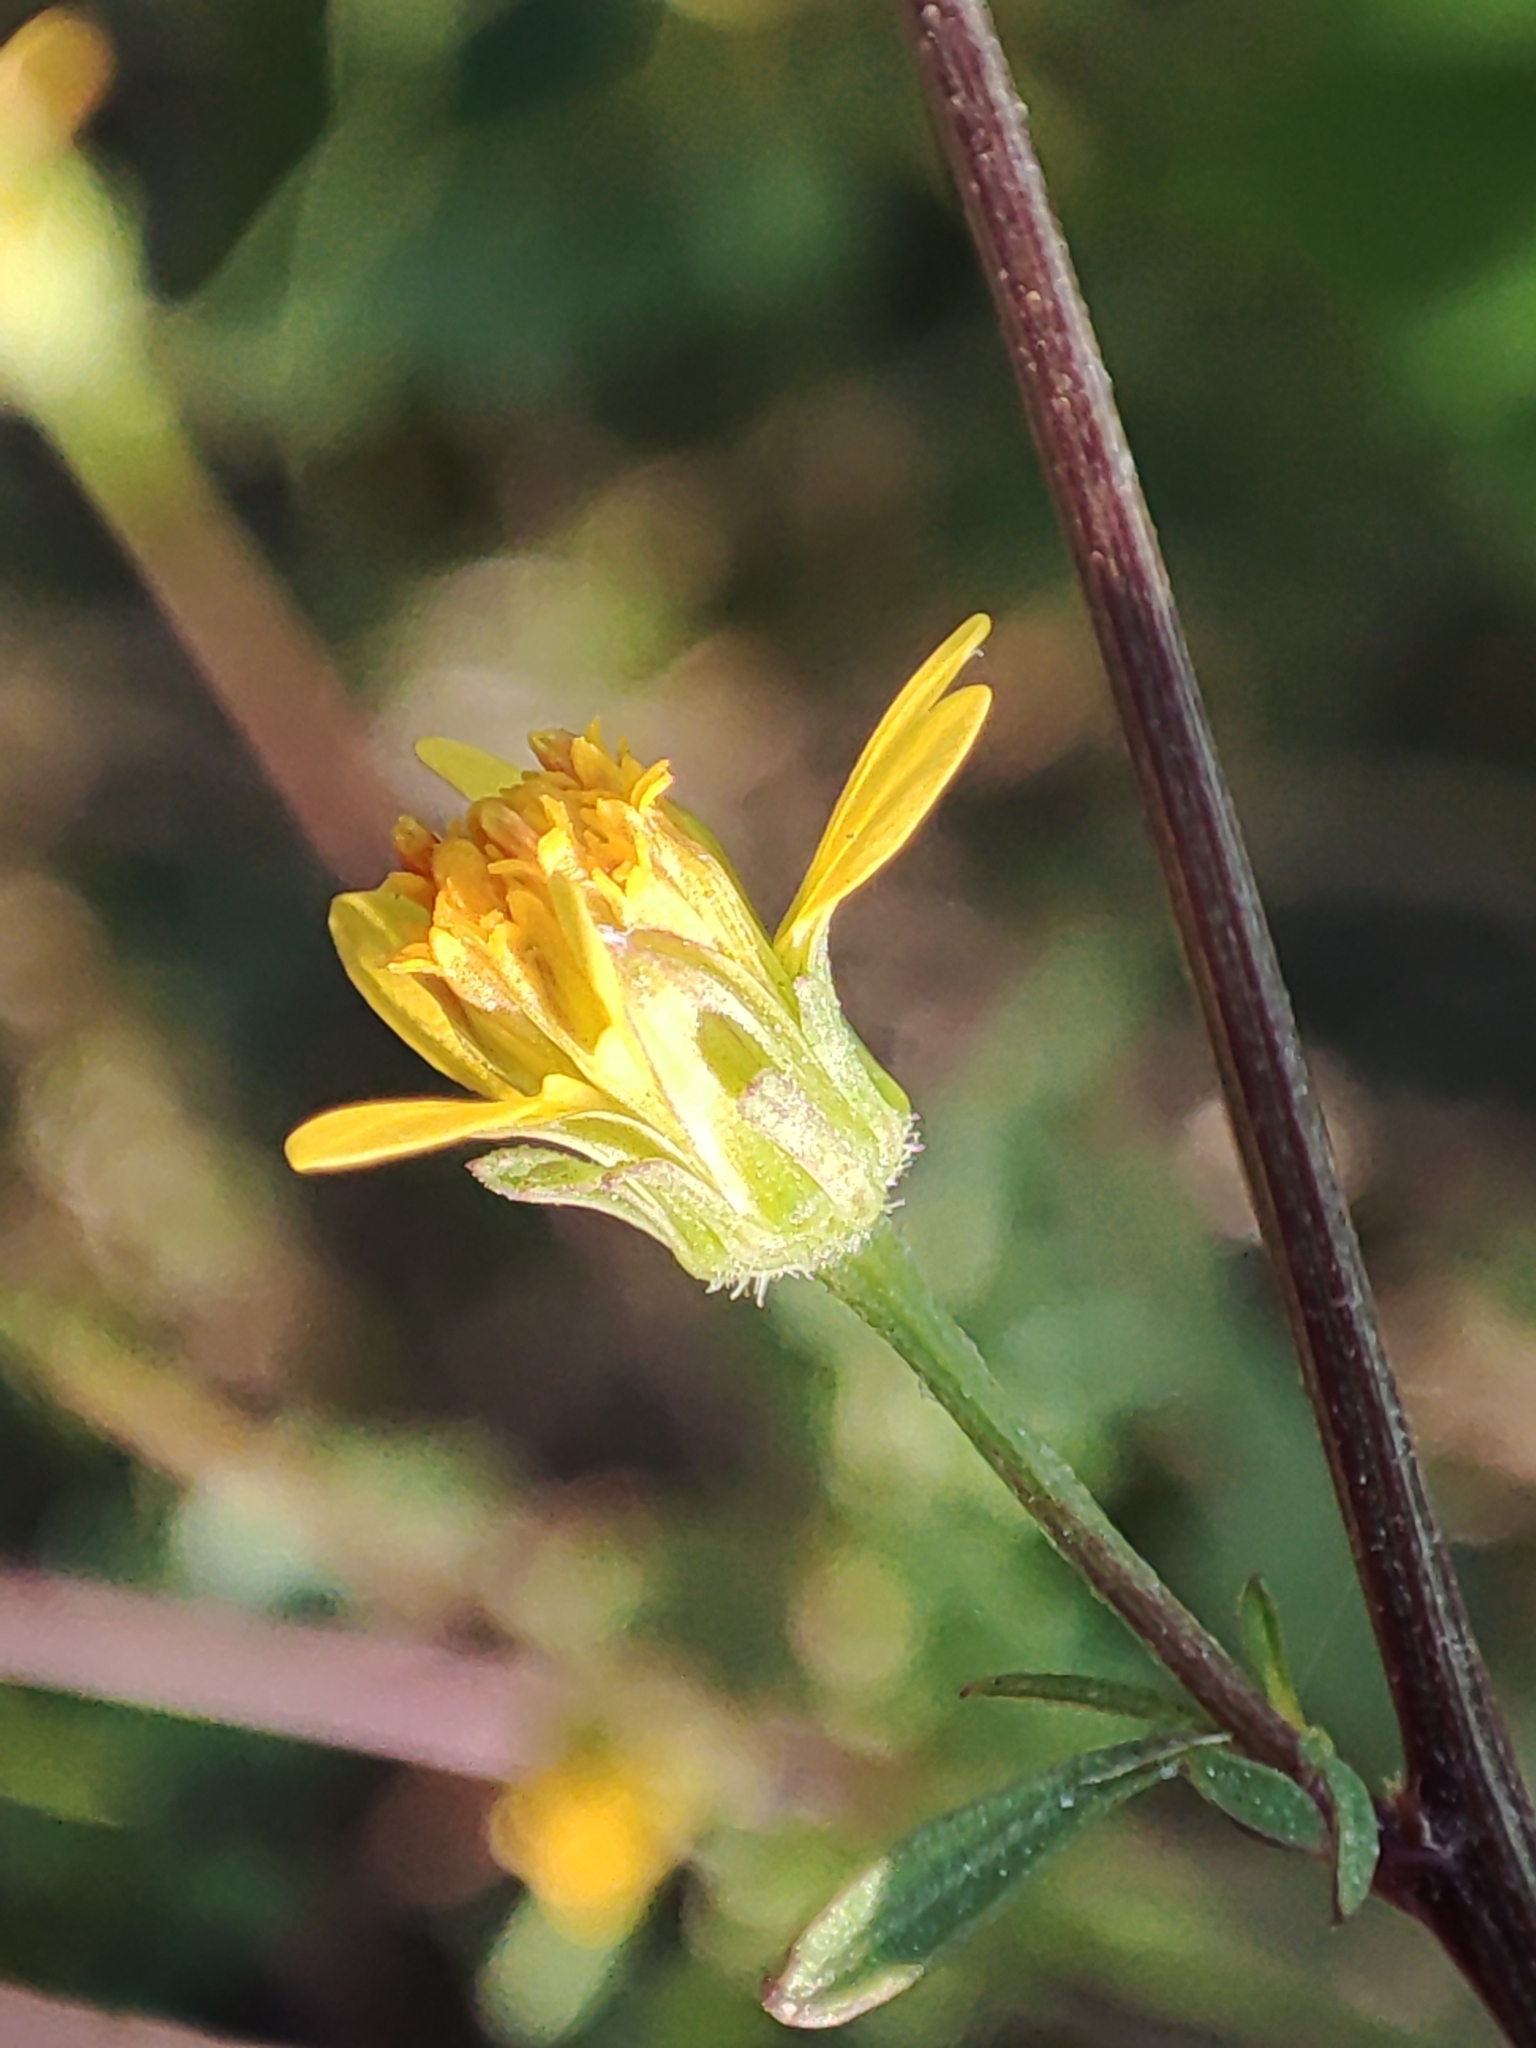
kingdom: Plantae
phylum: Tracheophyta
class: Magnoliopsida
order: Asterales
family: Asteraceae
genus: Bidens
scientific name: Bidens bipinnata
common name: Spanish-needles
